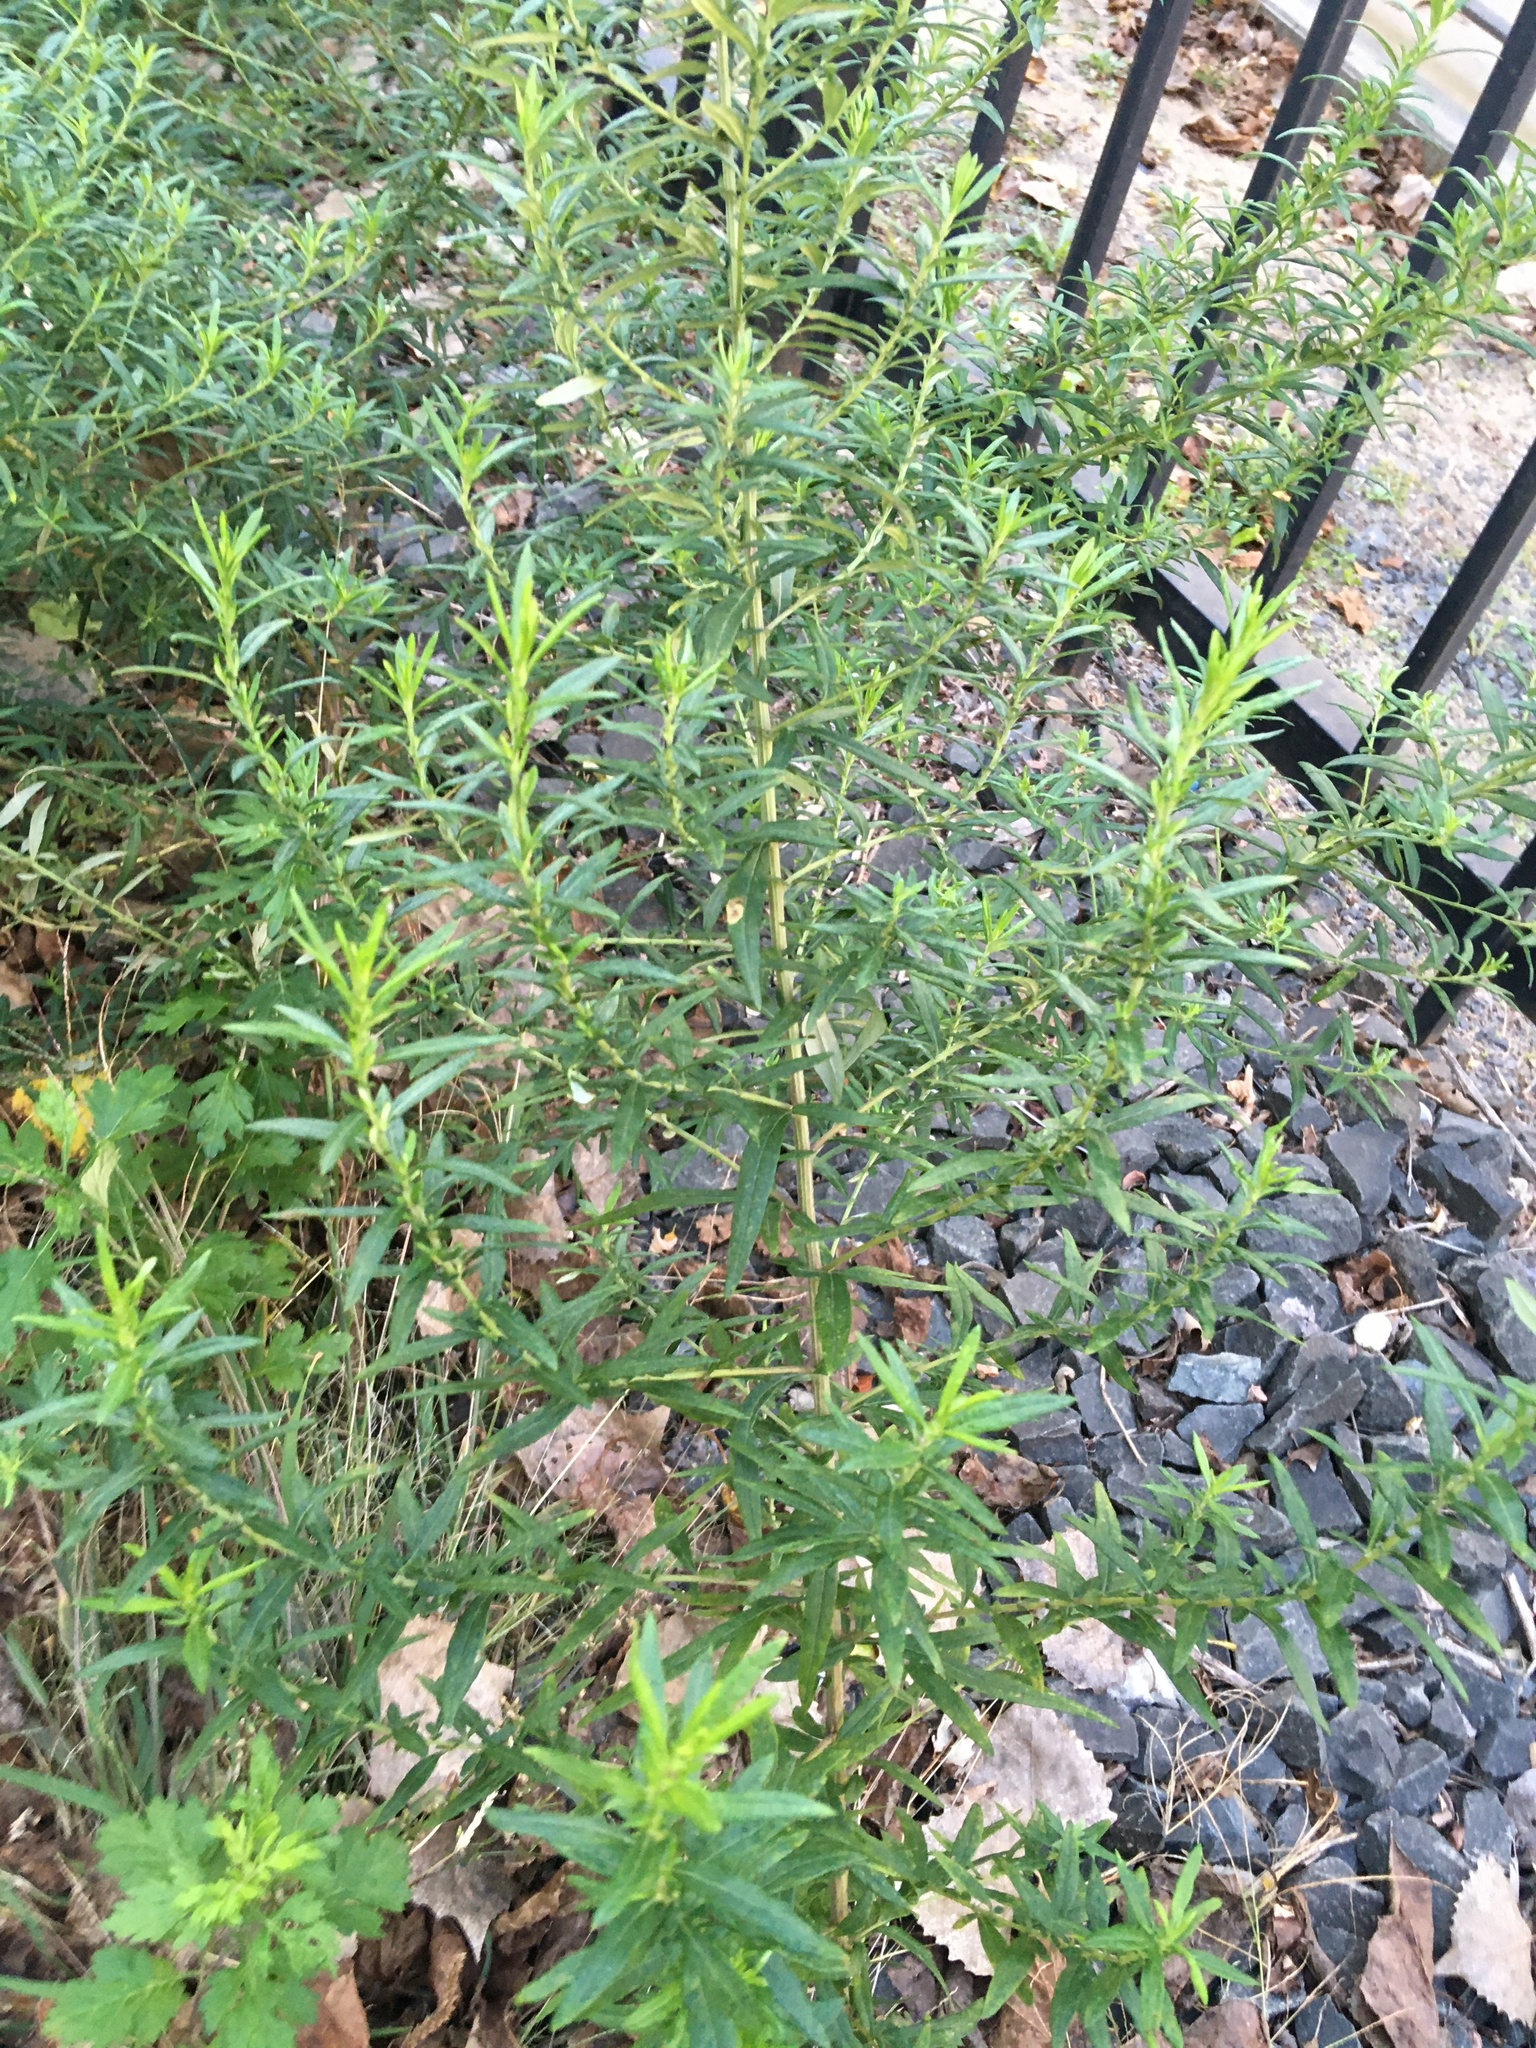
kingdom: Plantae
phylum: Tracheophyta
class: Magnoliopsida
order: Asterales
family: Asteraceae
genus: Artemisia
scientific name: Artemisia vulgaris
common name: Mugwort
